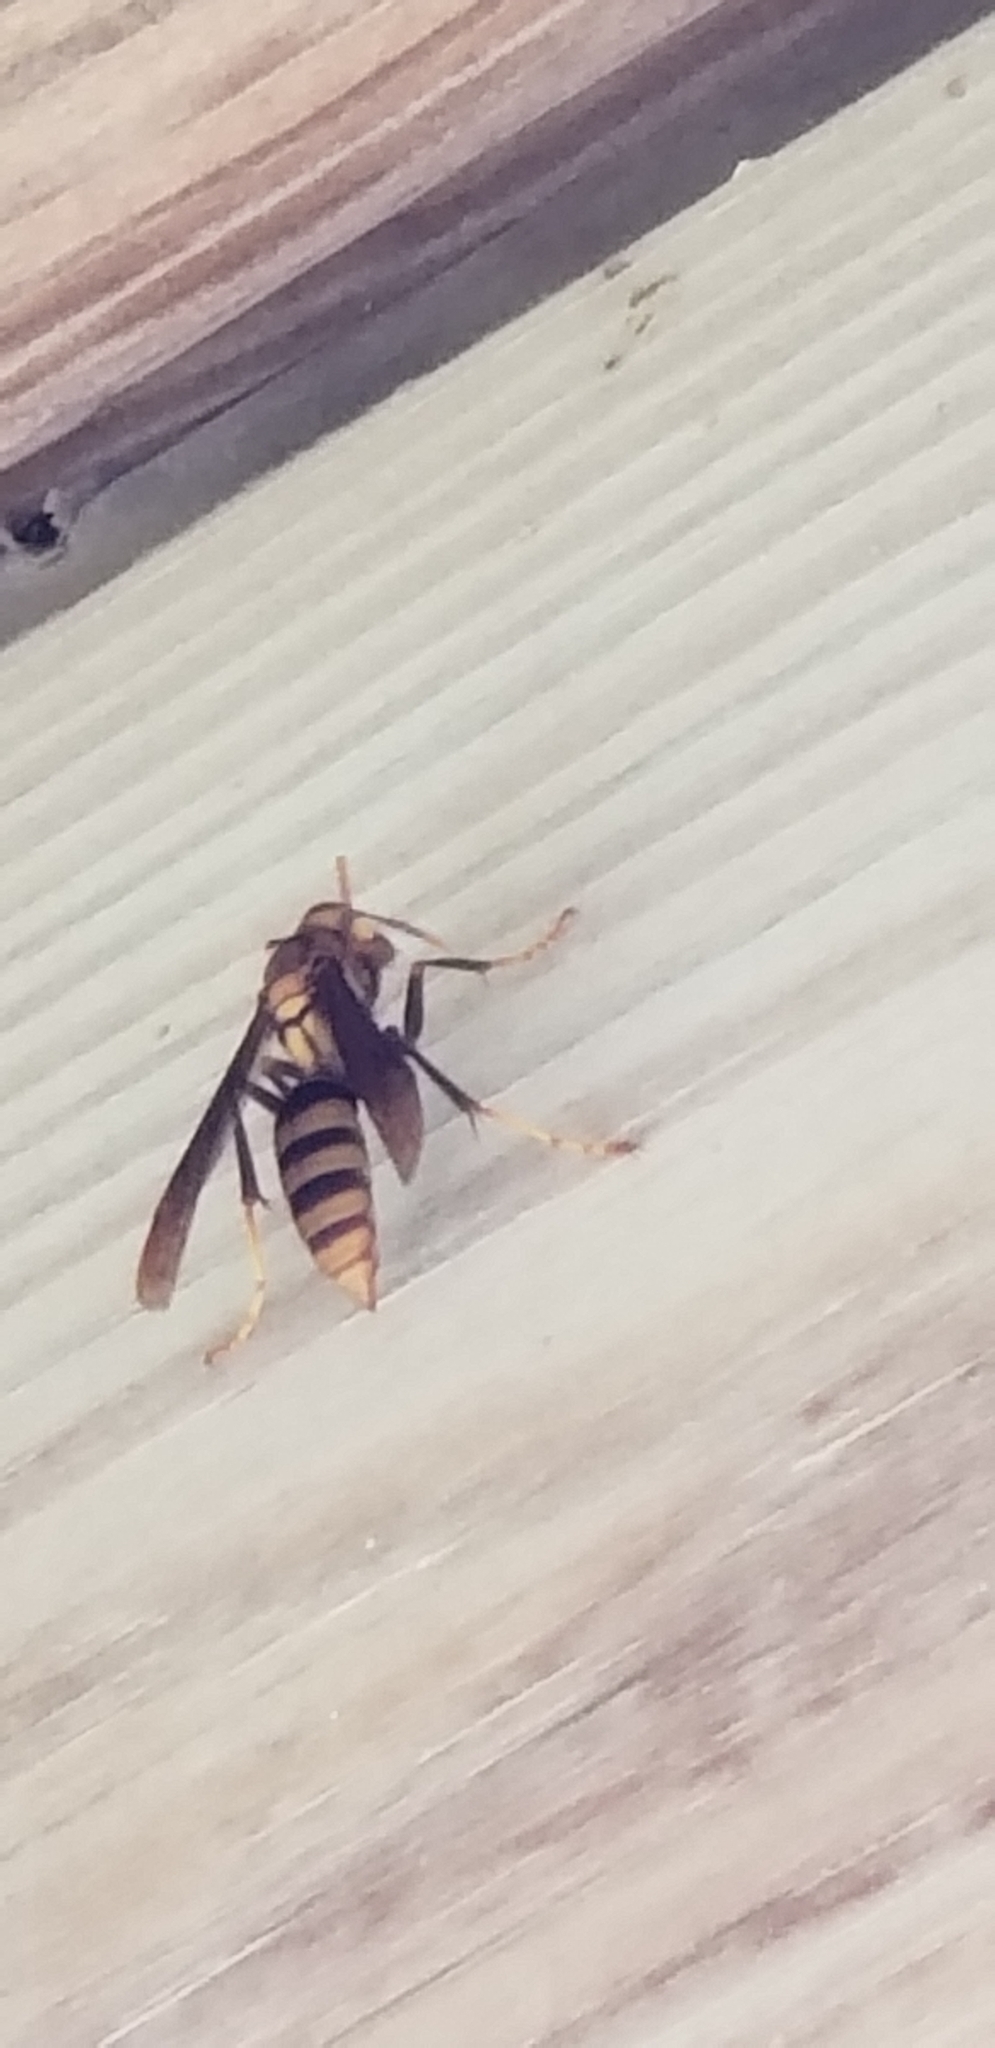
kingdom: Animalia
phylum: Arthropoda
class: Insecta
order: Hymenoptera
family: Eumenidae
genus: Polistes
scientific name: Polistes major
